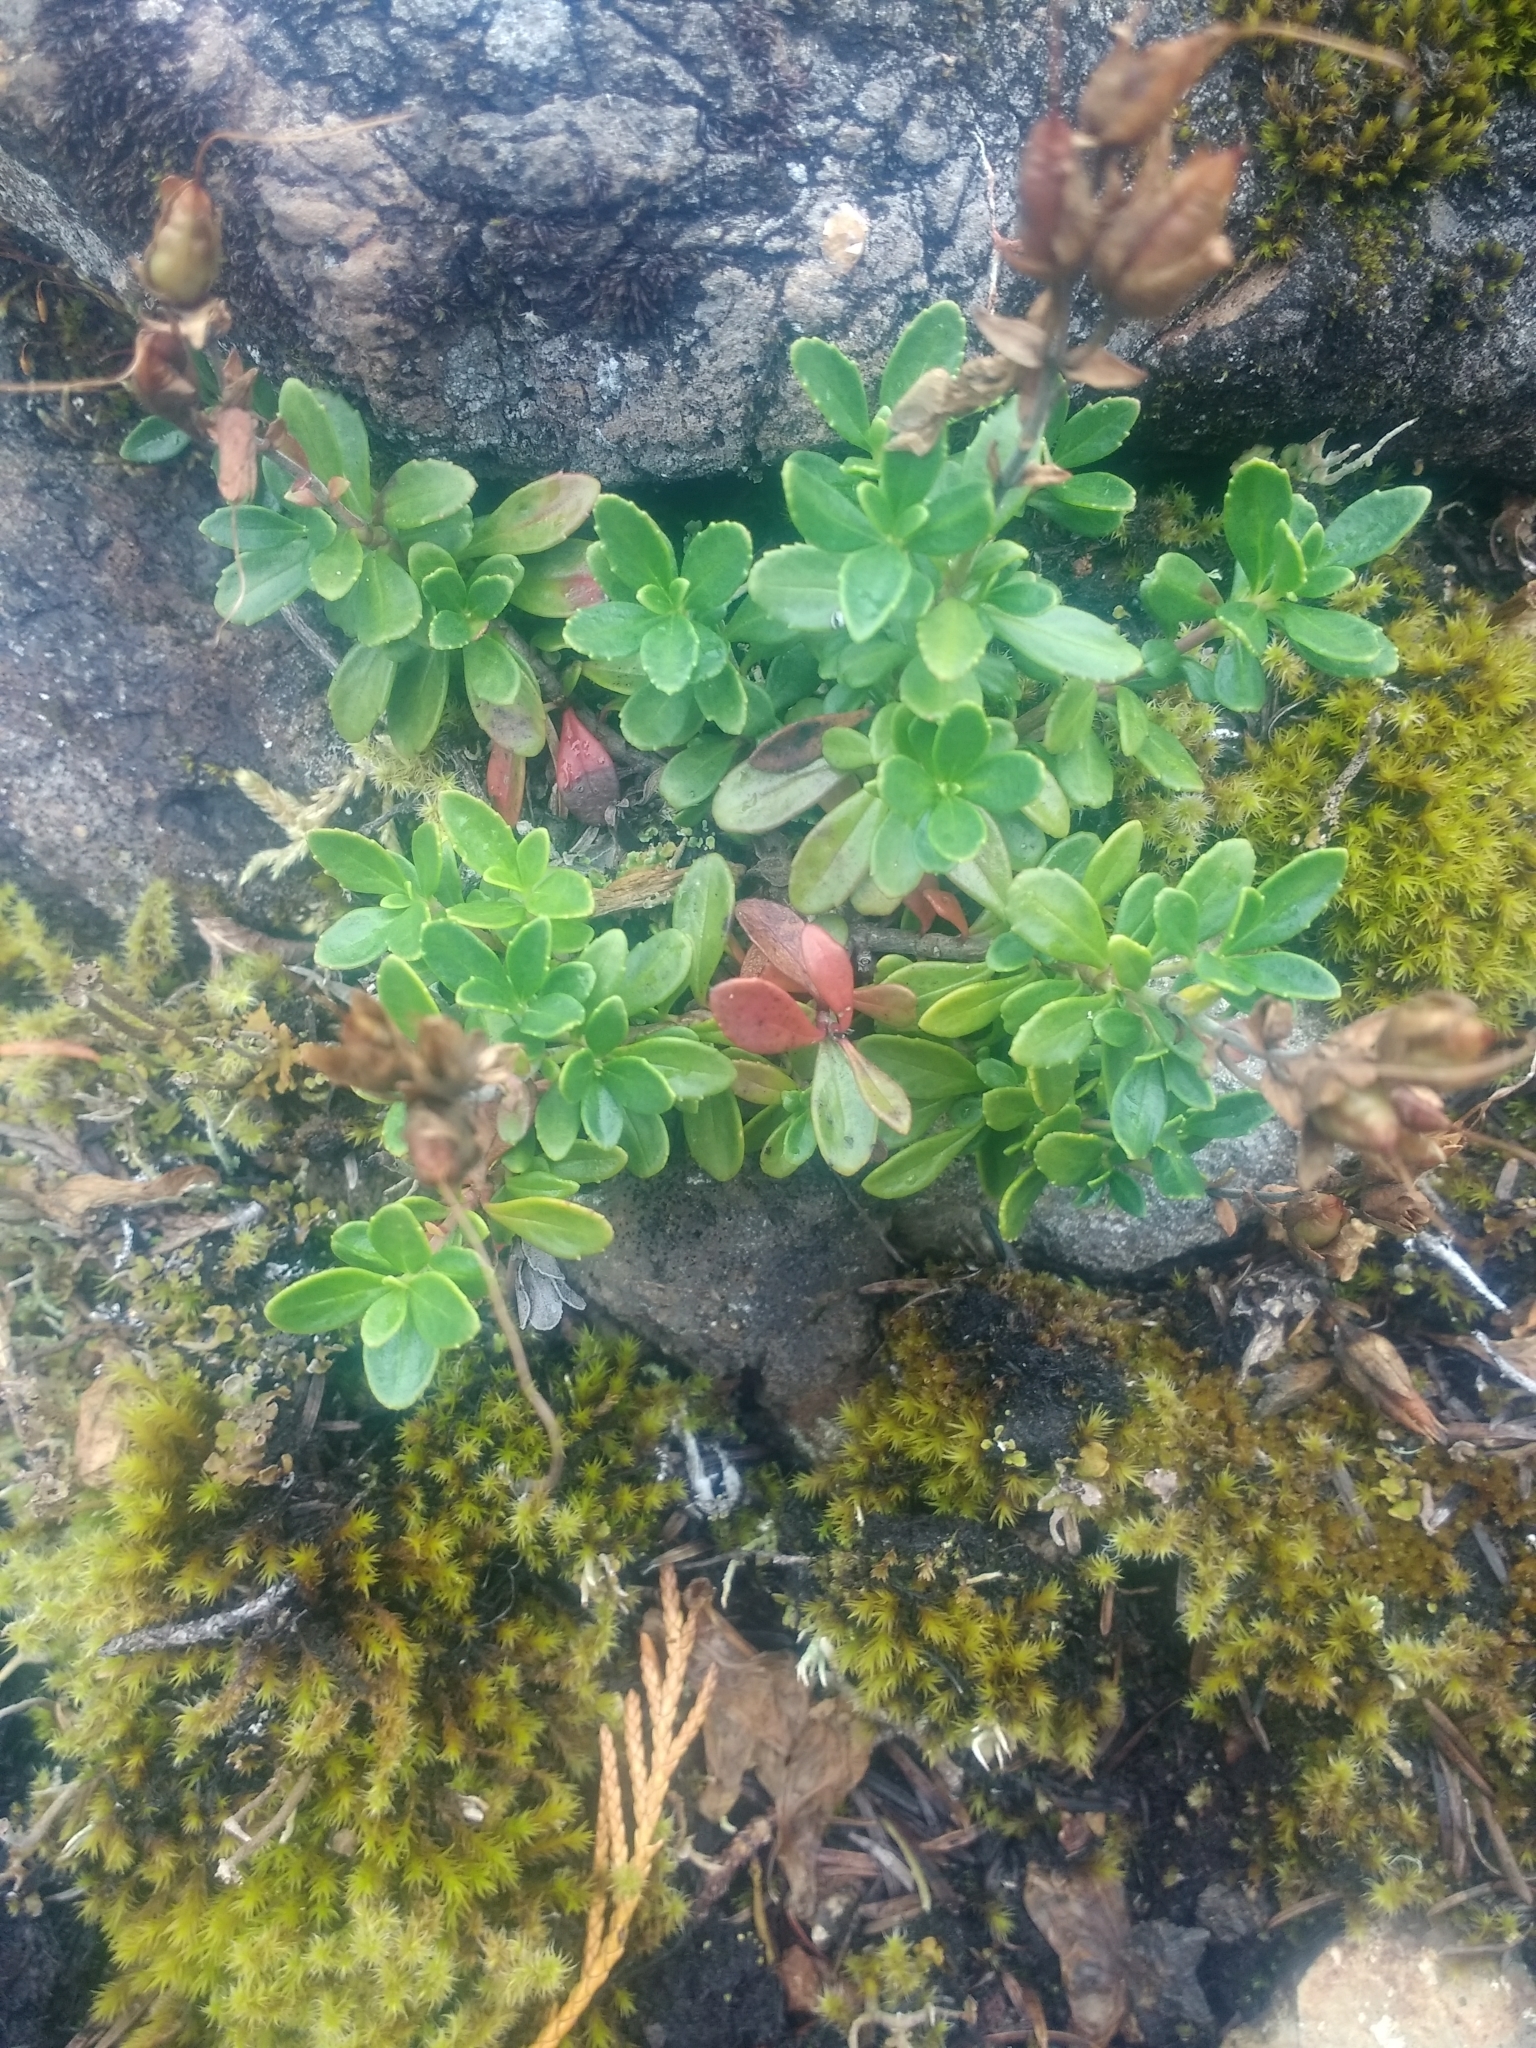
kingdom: Plantae
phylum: Tracheophyta
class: Magnoliopsida
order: Lamiales
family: Plantaginaceae
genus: Penstemon
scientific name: Penstemon davidsonii
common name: Davidson's penstemon
